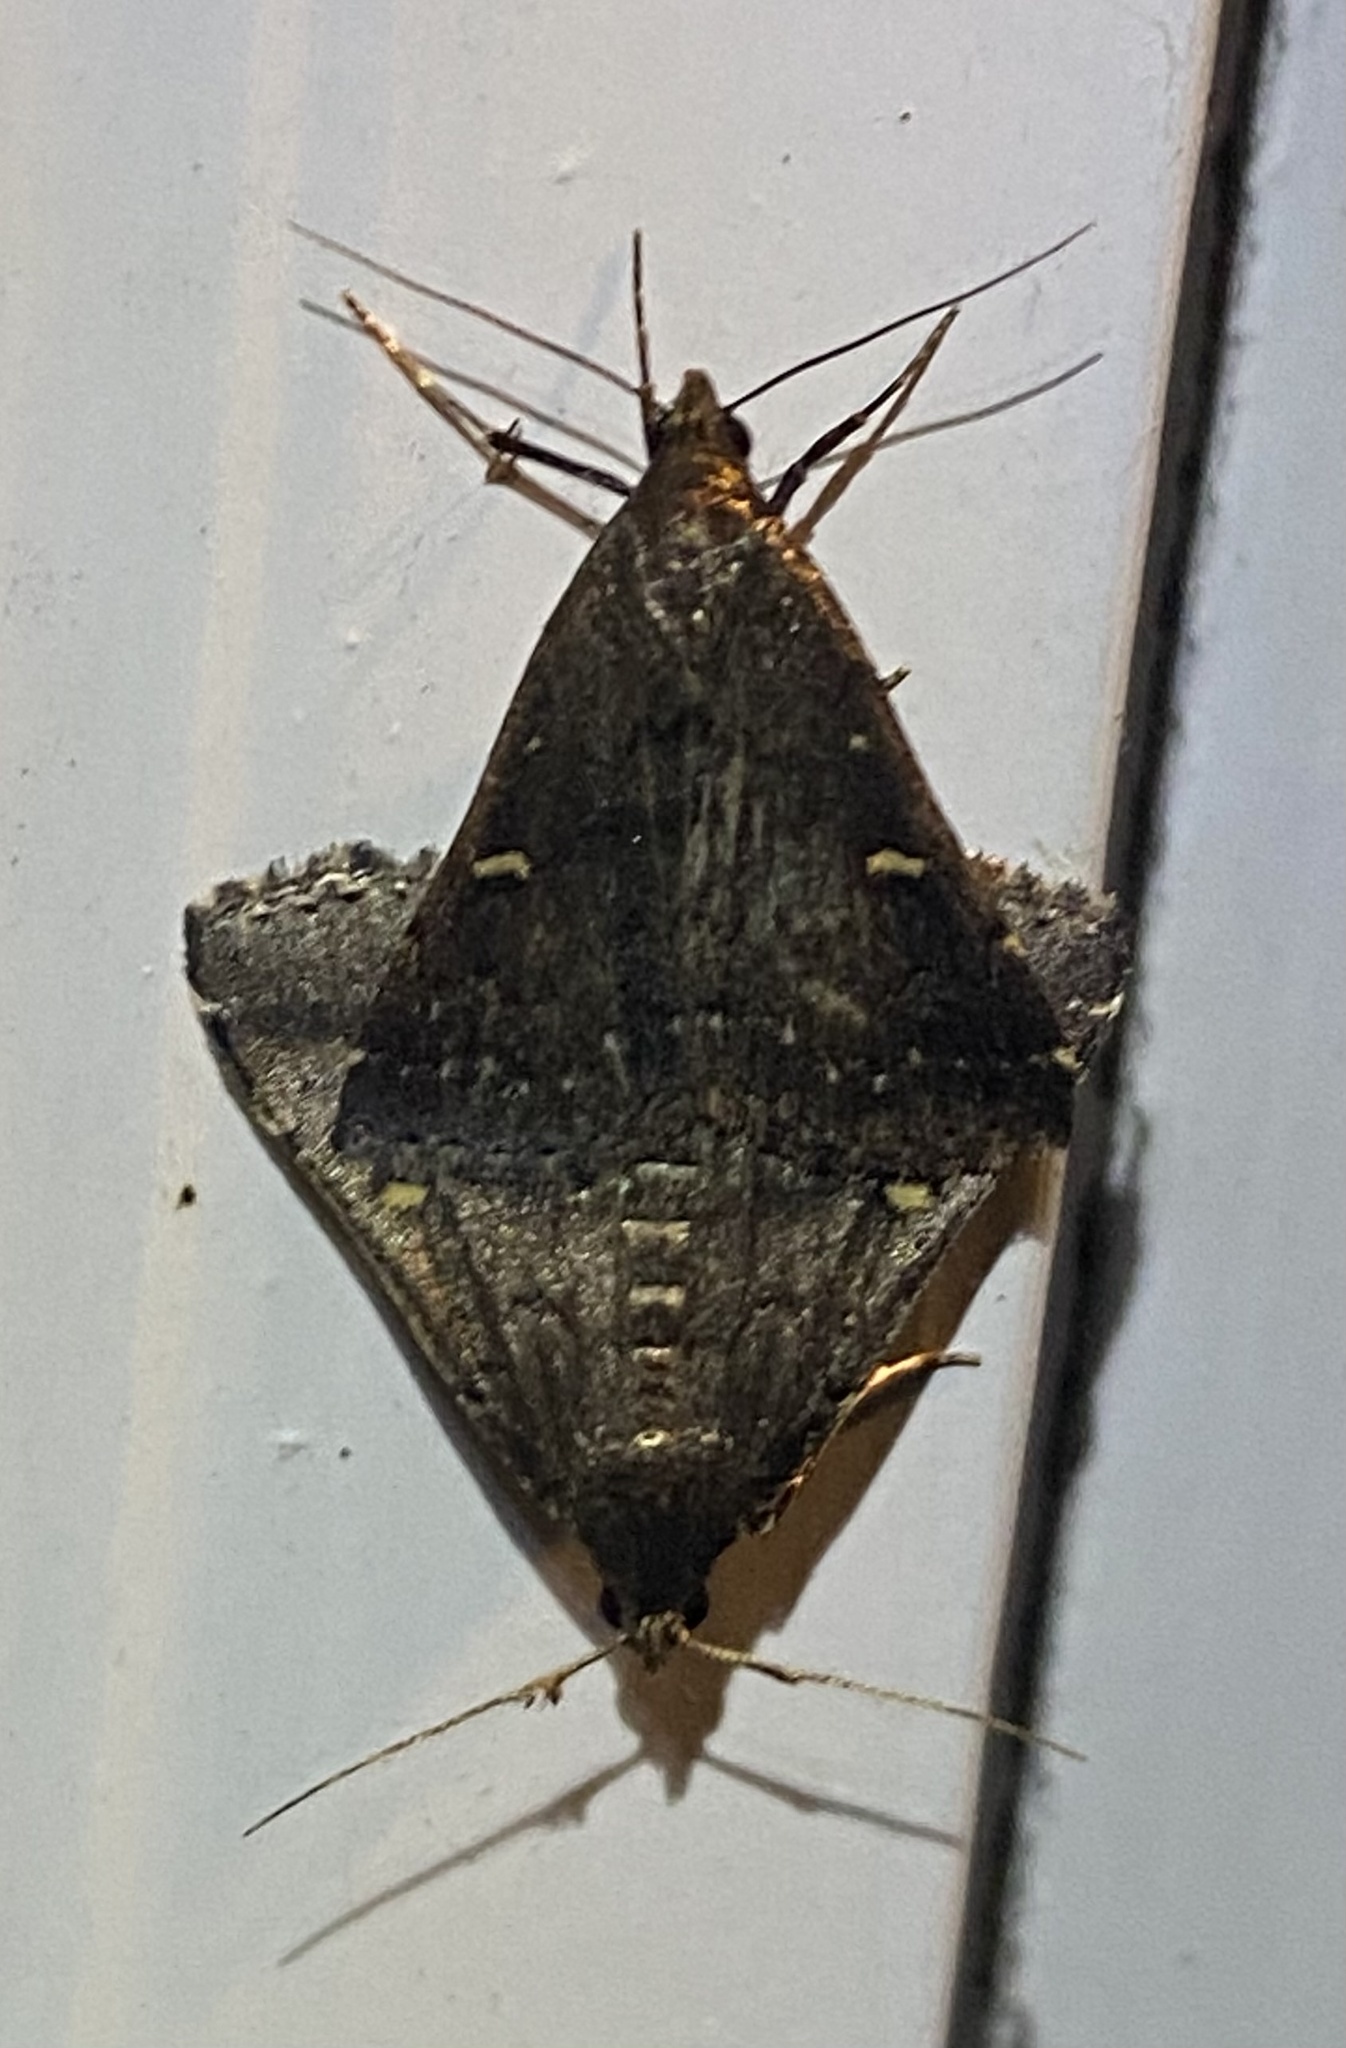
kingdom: Animalia
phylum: Arthropoda
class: Insecta
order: Lepidoptera
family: Erebidae
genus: Tetanolita
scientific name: Tetanolita mynesalis
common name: Smoky tetanolita moth
